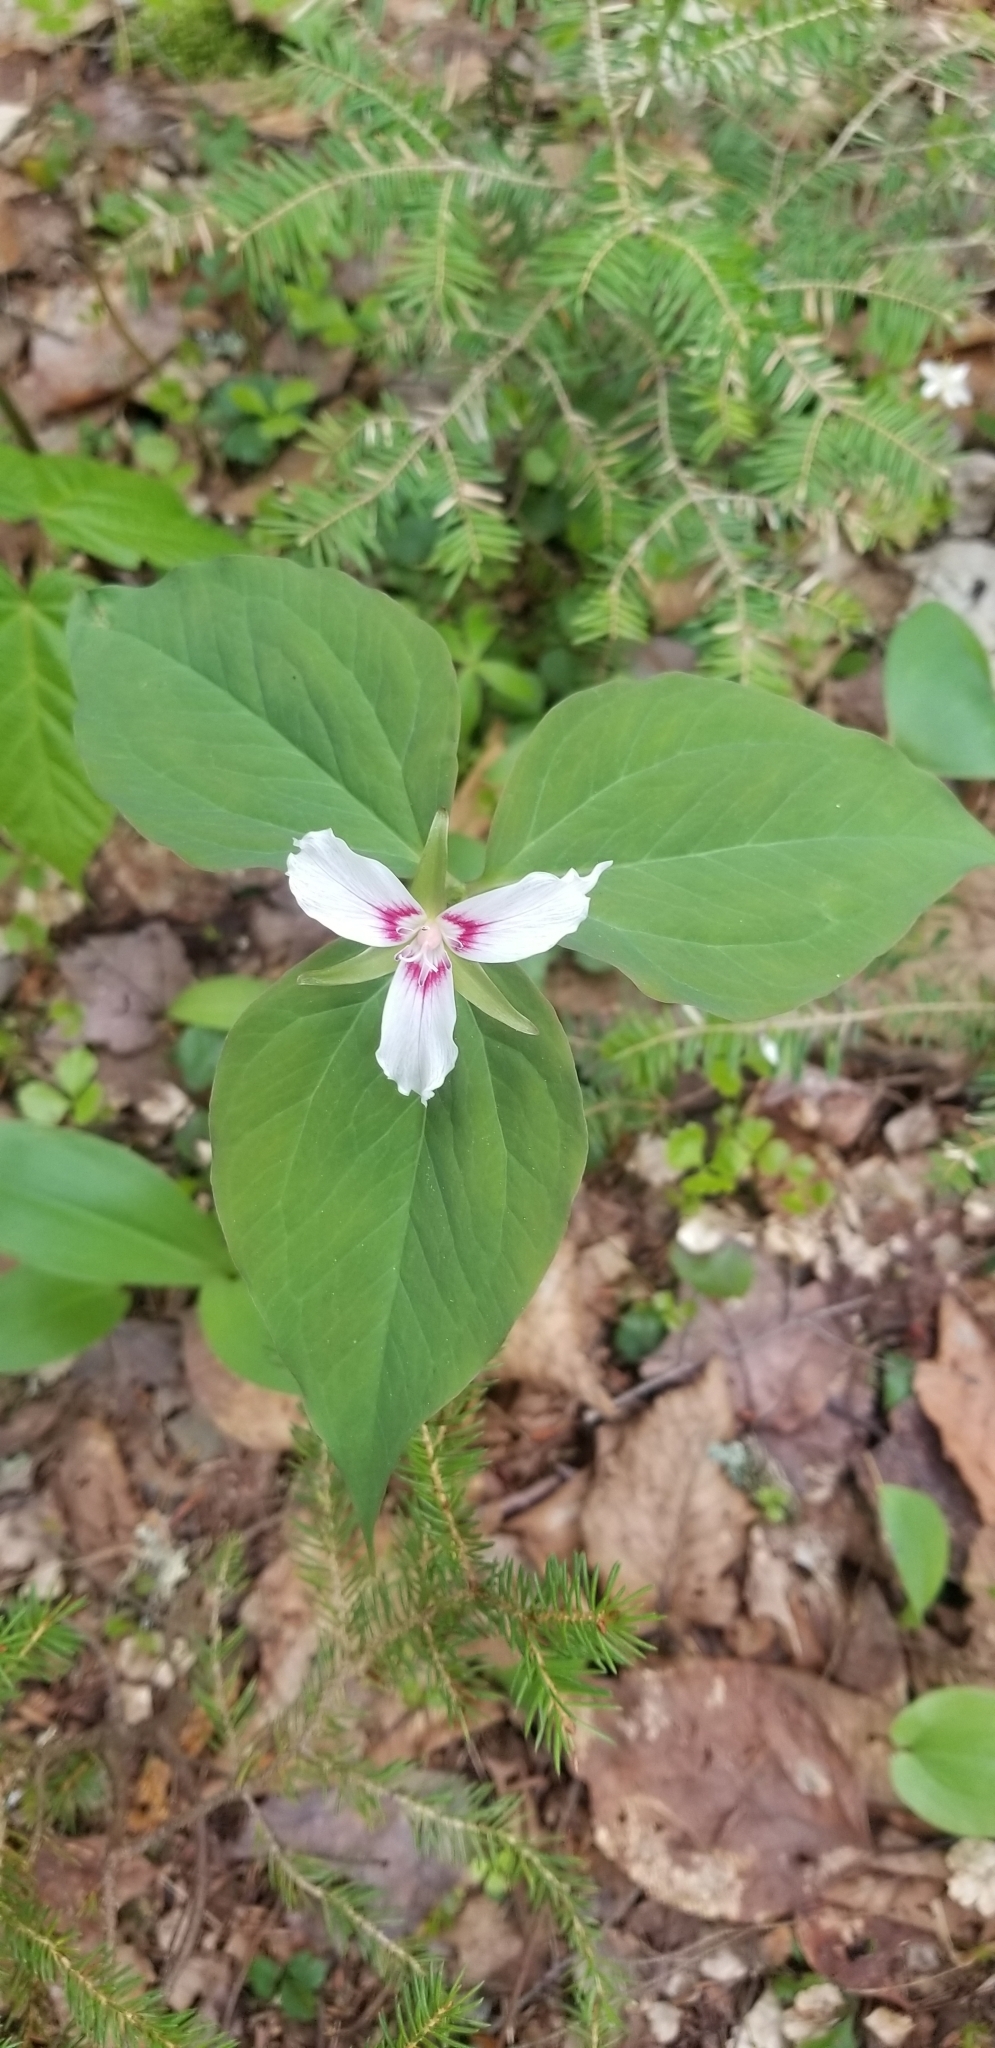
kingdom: Plantae
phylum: Tracheophyta
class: Liliopsida
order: Liliales
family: Melanthiaceae
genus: Trillium
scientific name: Trillium undulatum
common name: Paint trillium
